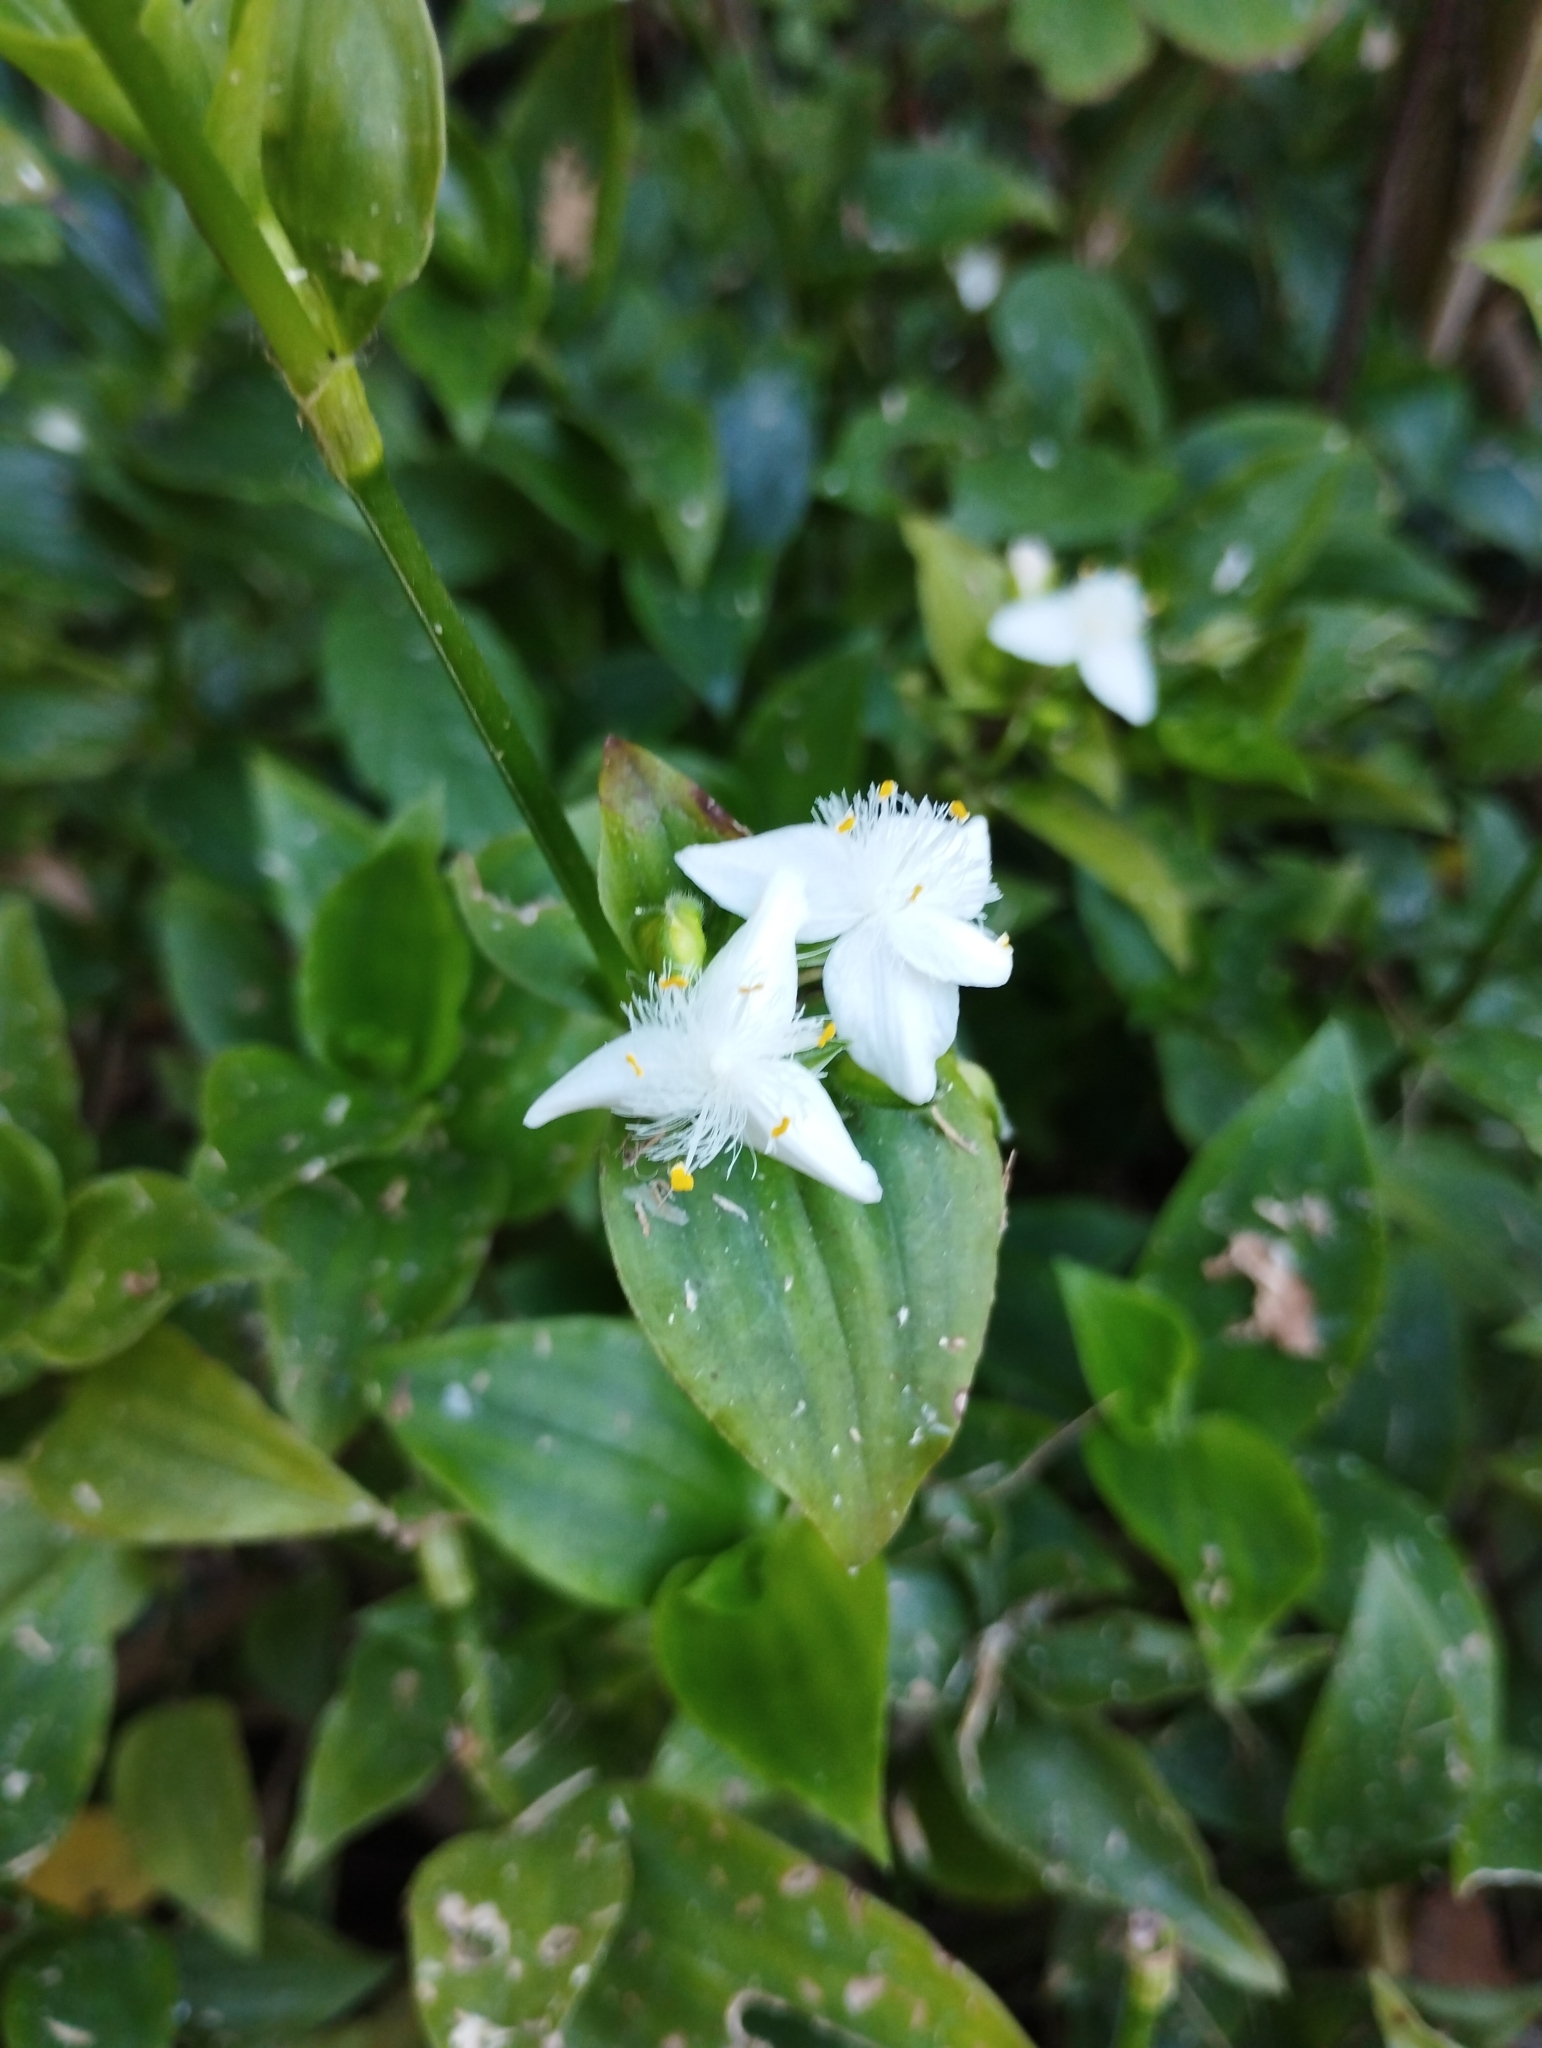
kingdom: Plantae
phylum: Tracheophyta
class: Liliopsida
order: Commelinales
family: Commelinaceae
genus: Tradescantia
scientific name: Tradescantia fluminensis
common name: Wandering-jew
